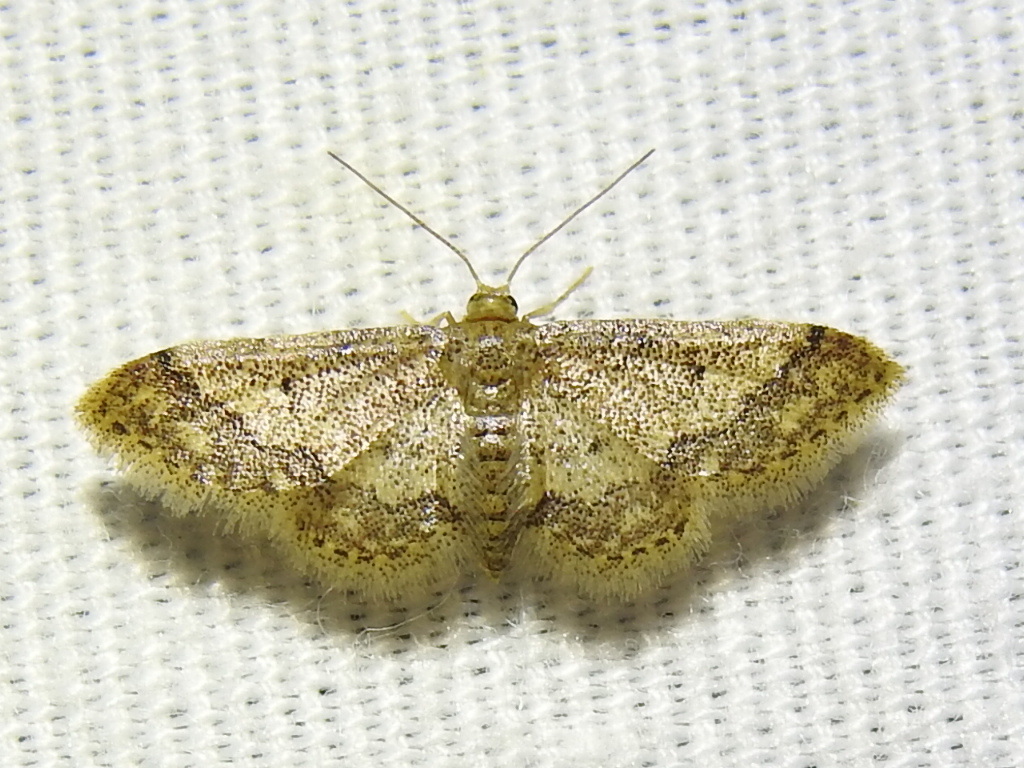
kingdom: Animalia
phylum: Arthropoda
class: Insecta
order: Lepidoptera
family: Geometridae
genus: Idaea
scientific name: Idaea celtima
